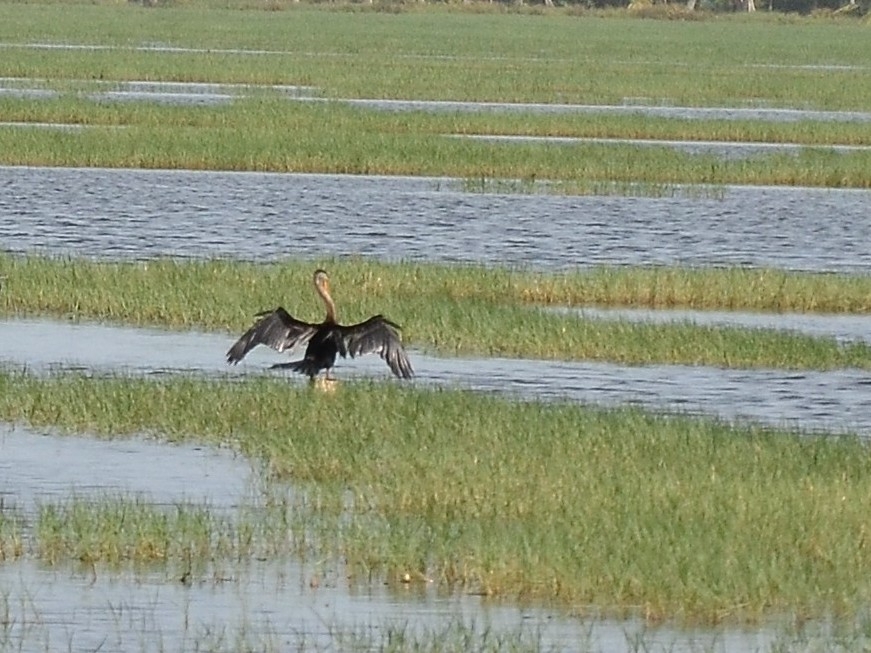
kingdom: Animalia
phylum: Chordata
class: Aves
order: Suliformes
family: Anhingidae
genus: Anhinga
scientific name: Anhinga melanogaster
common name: Oriental darter
